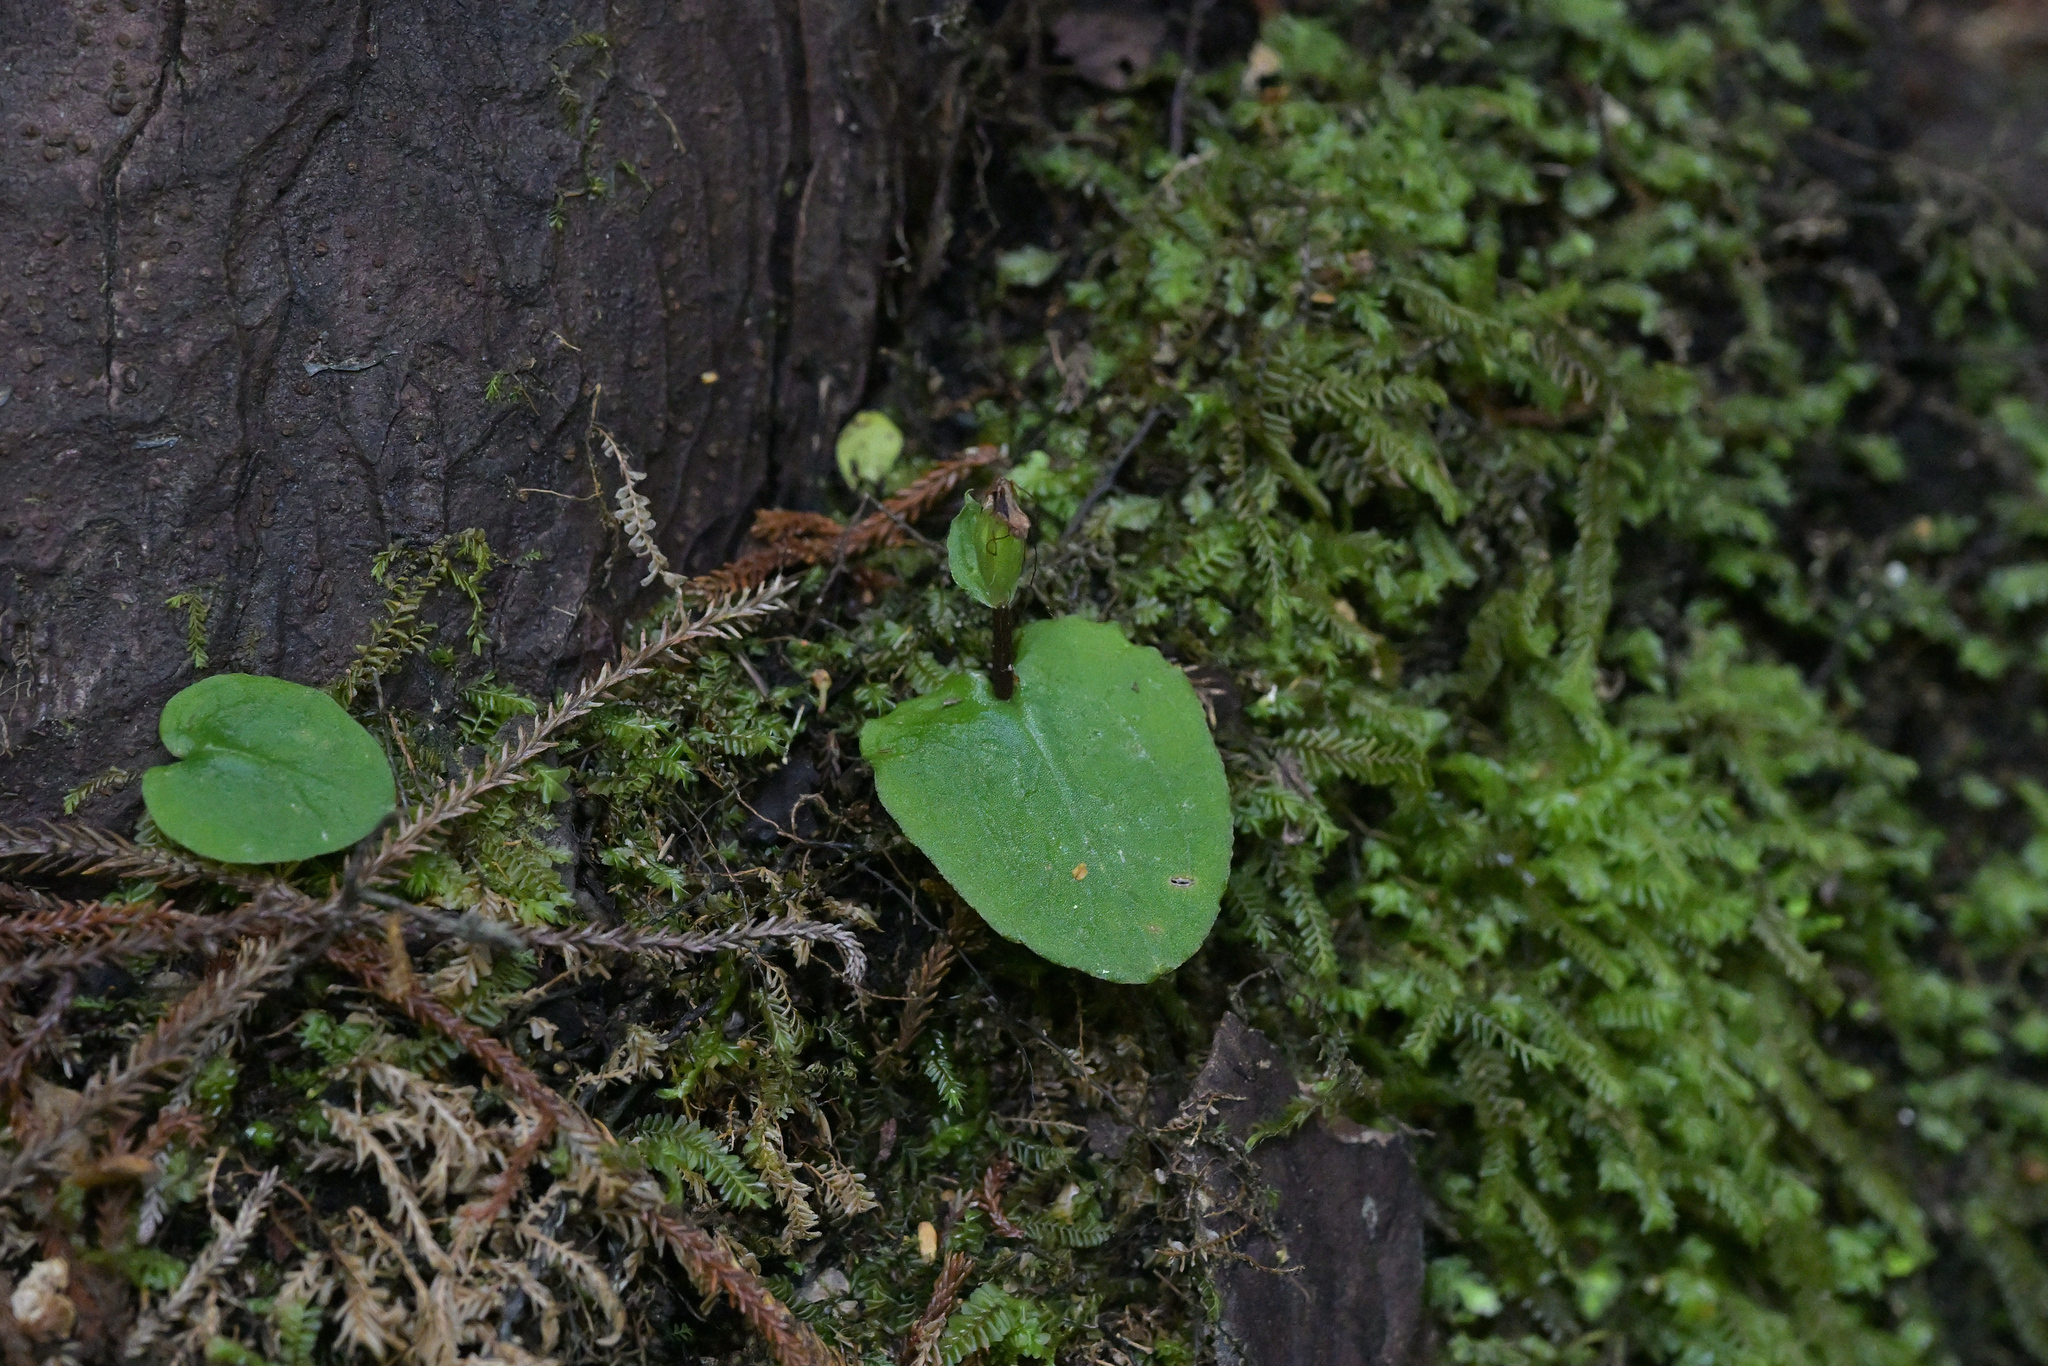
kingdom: Plantae
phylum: Tracheophyta
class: Liliopsida
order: Asparagales
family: Orchidaceae
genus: Corybas
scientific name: Corybas oblongus
